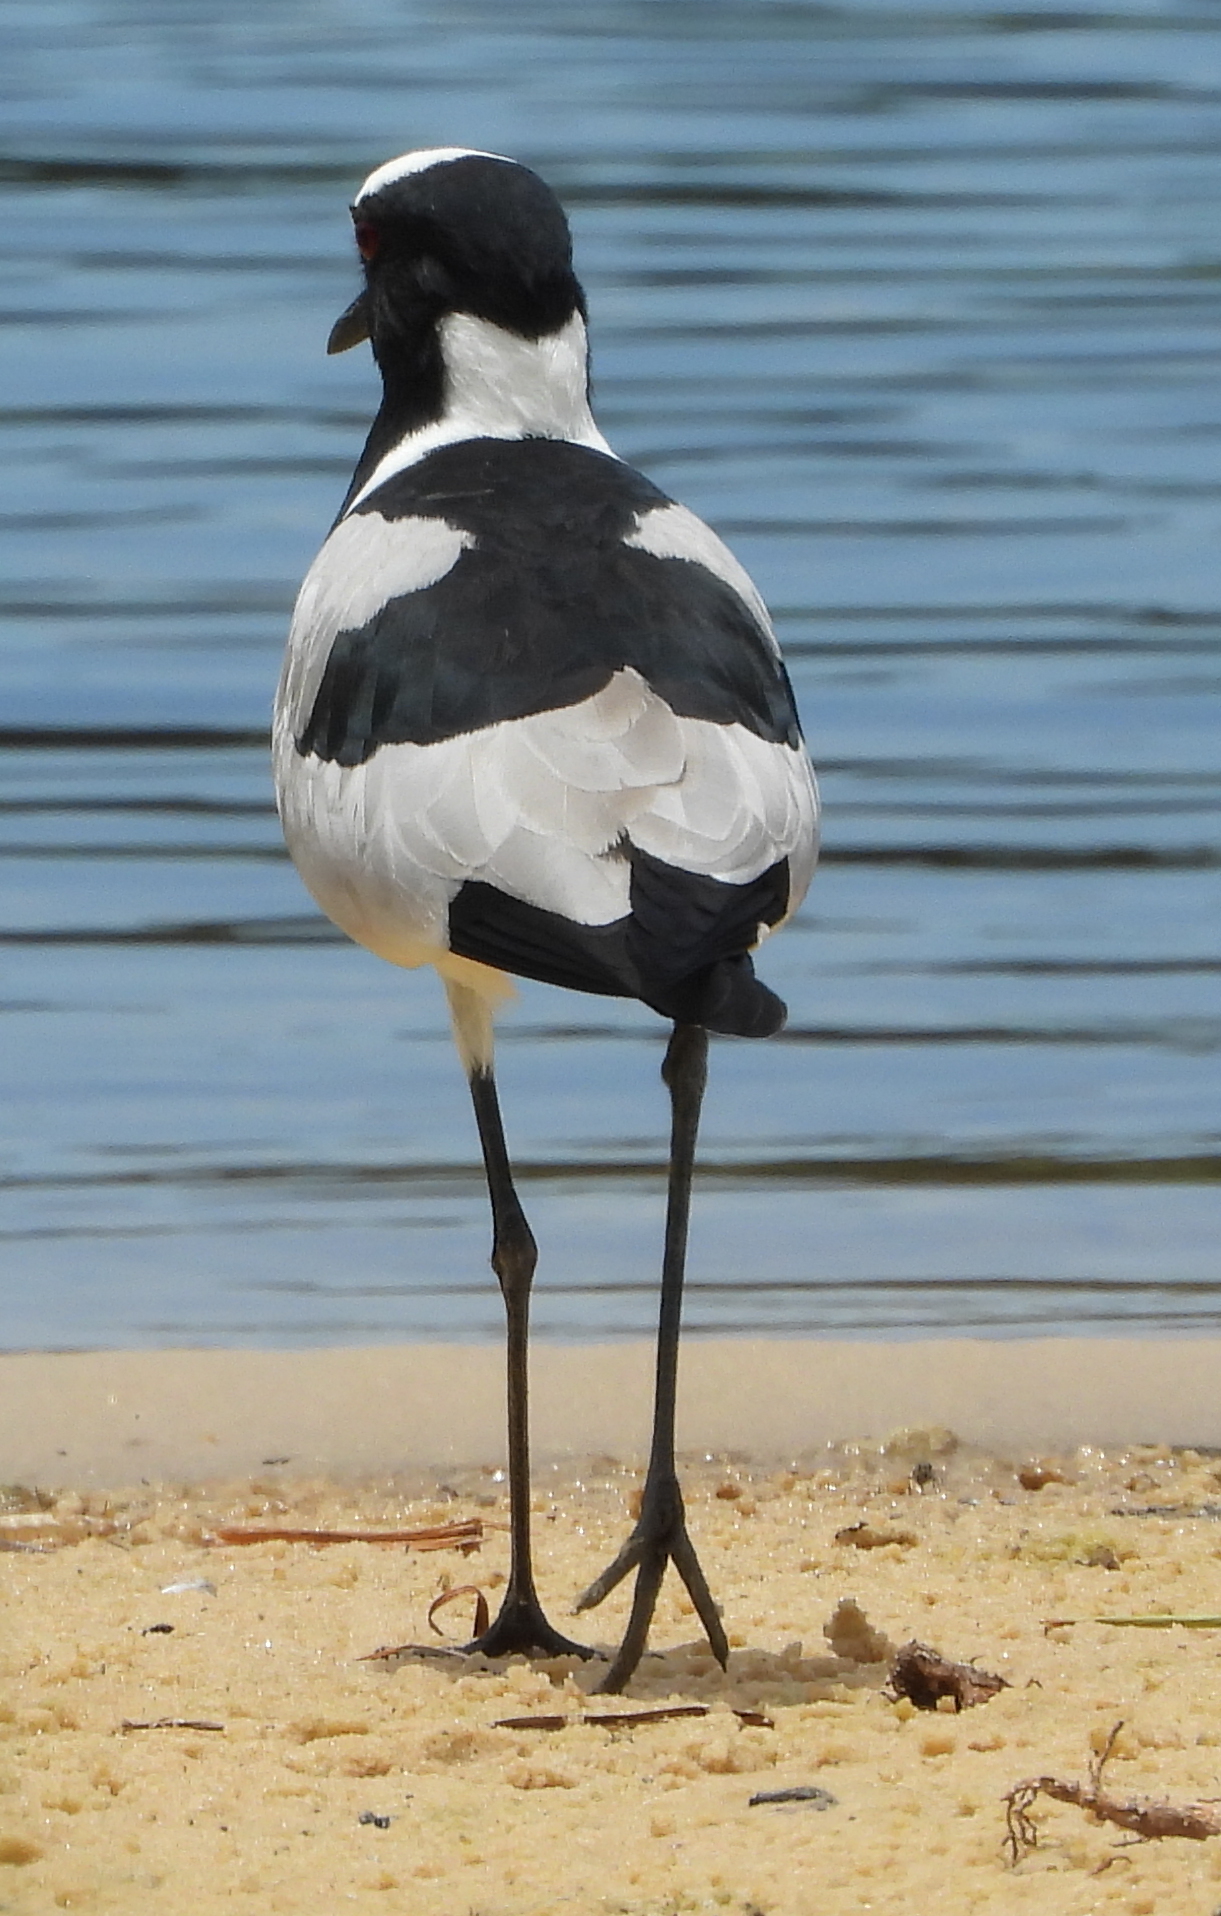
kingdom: Animalia
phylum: Chordata
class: Aves
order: Charadriiformes
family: Charadriidae
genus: Vanellus
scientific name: Vanellus armatus
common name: Blacksmith lapwing
